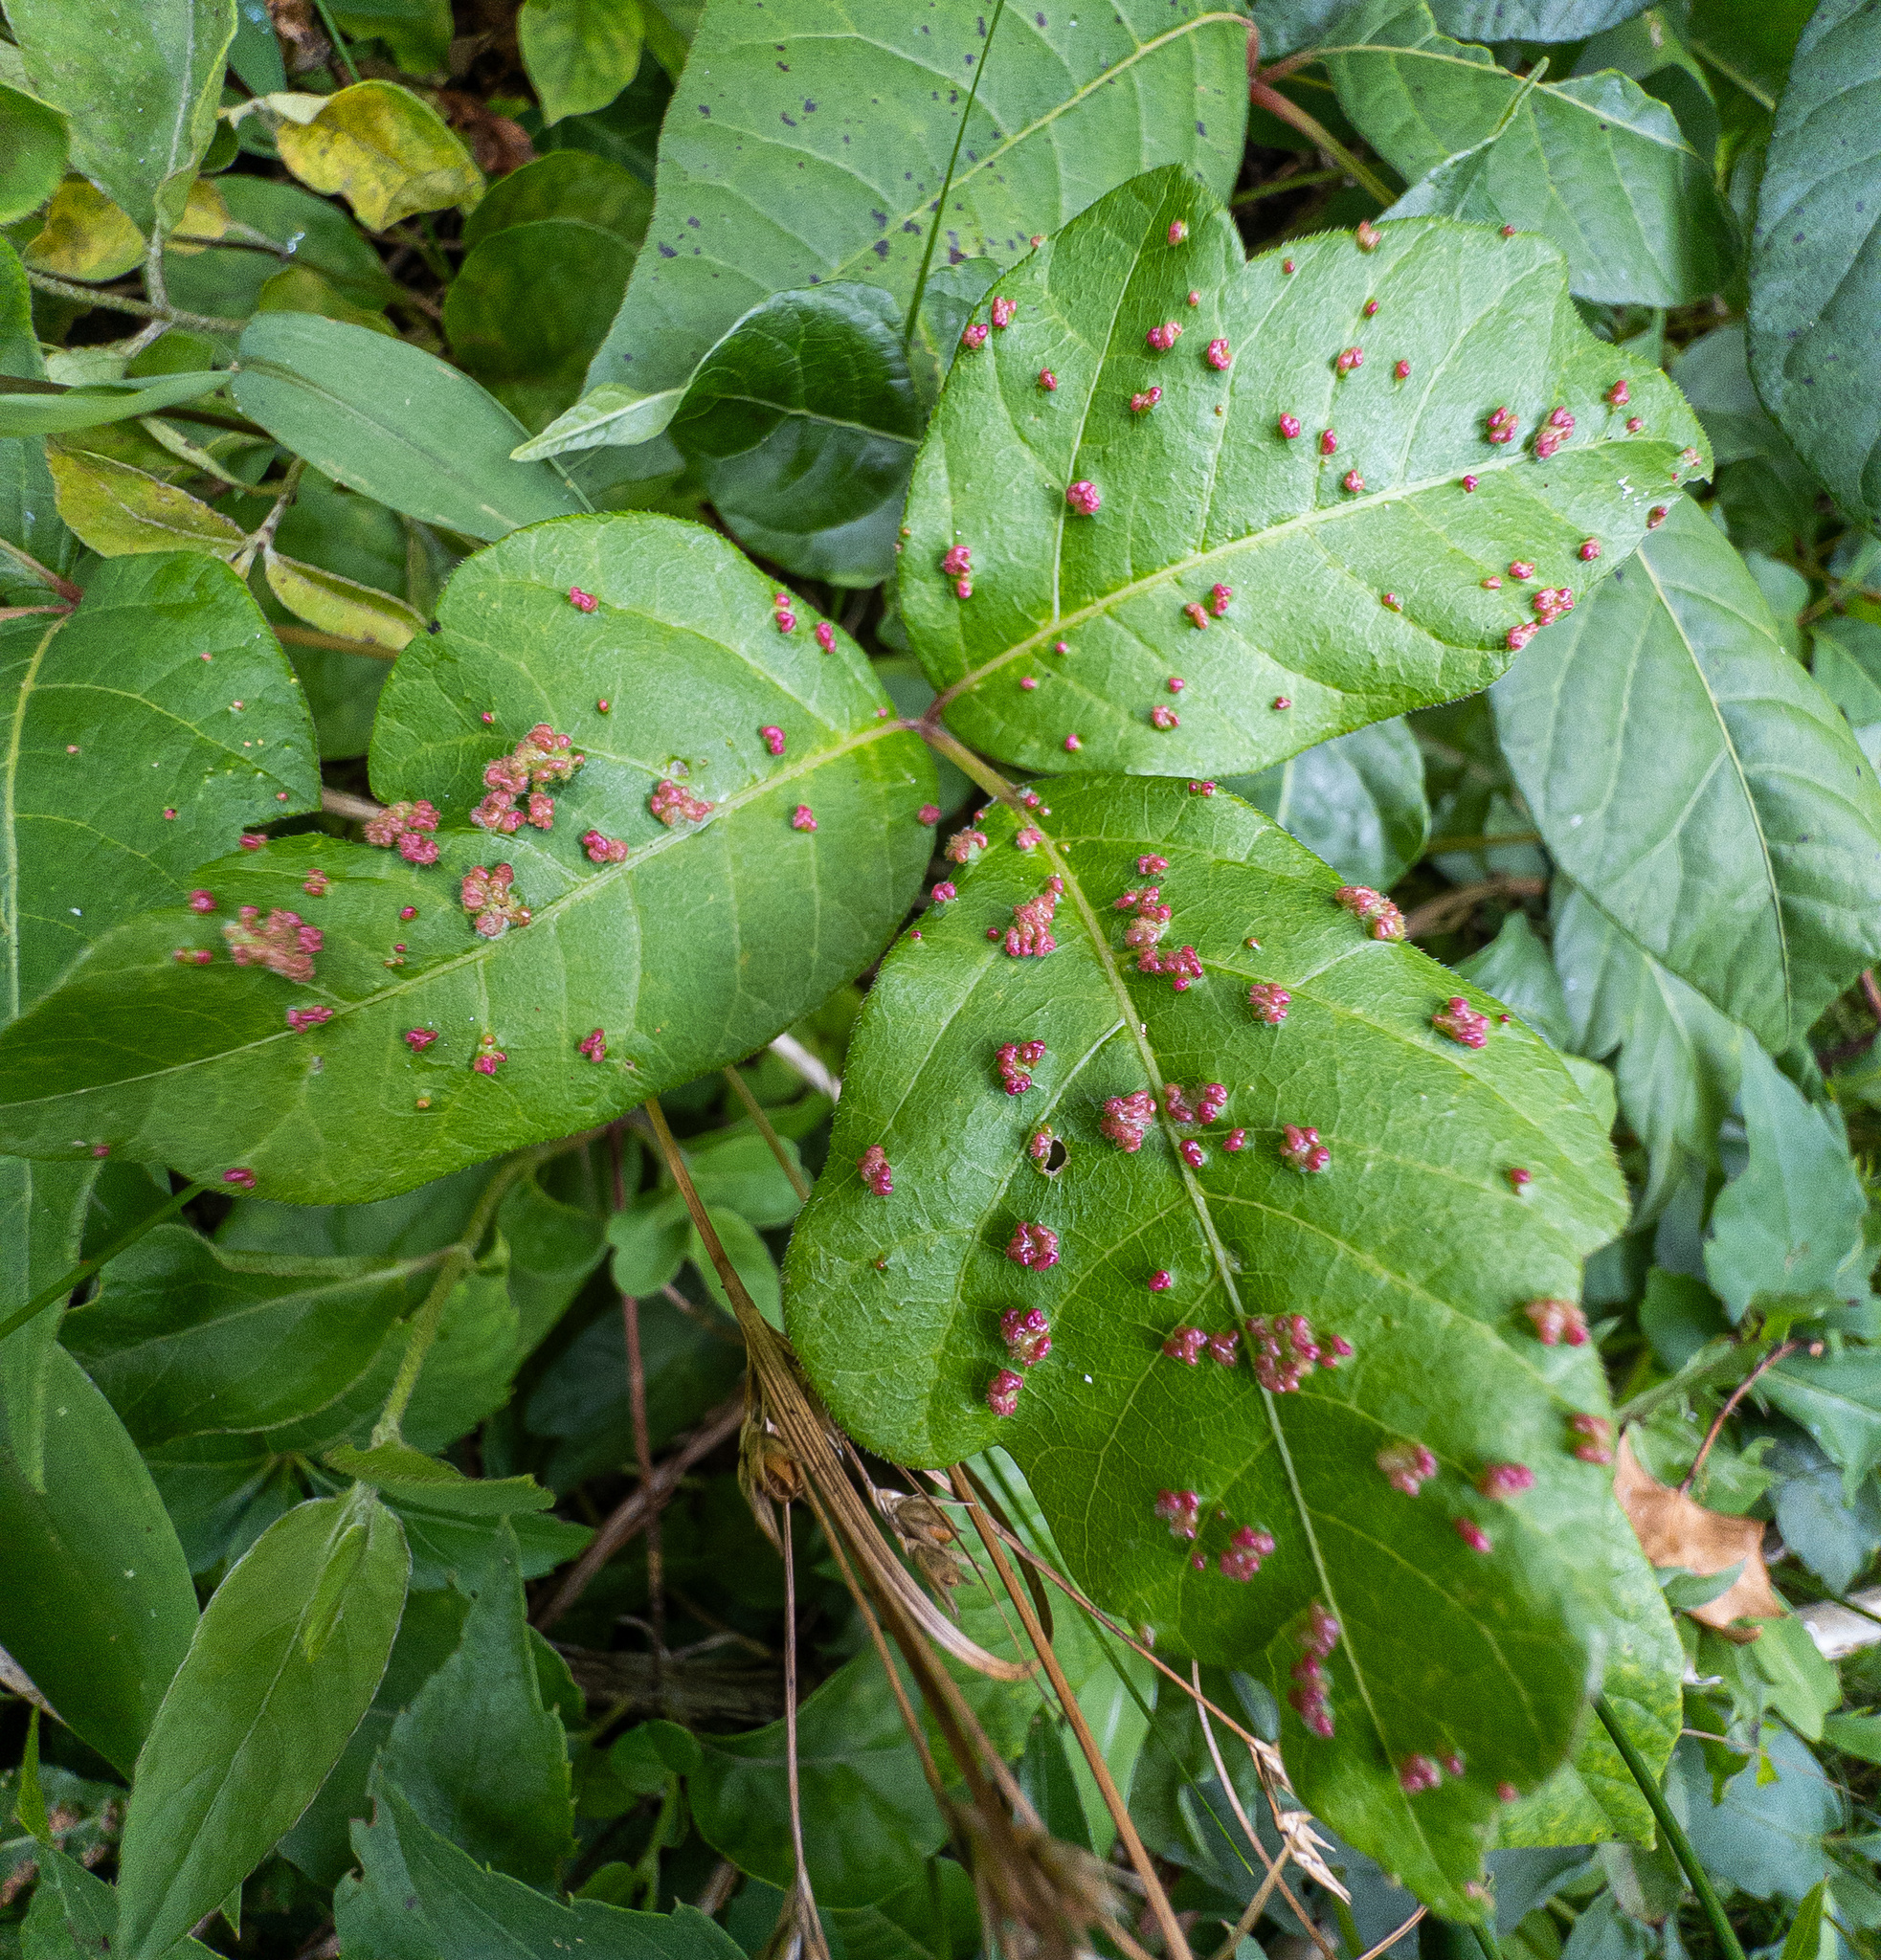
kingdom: Animalia
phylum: Arthropoda
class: Arachnida
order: Trombidiformes
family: Eriophyidae
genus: Aculops
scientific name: Aculops
